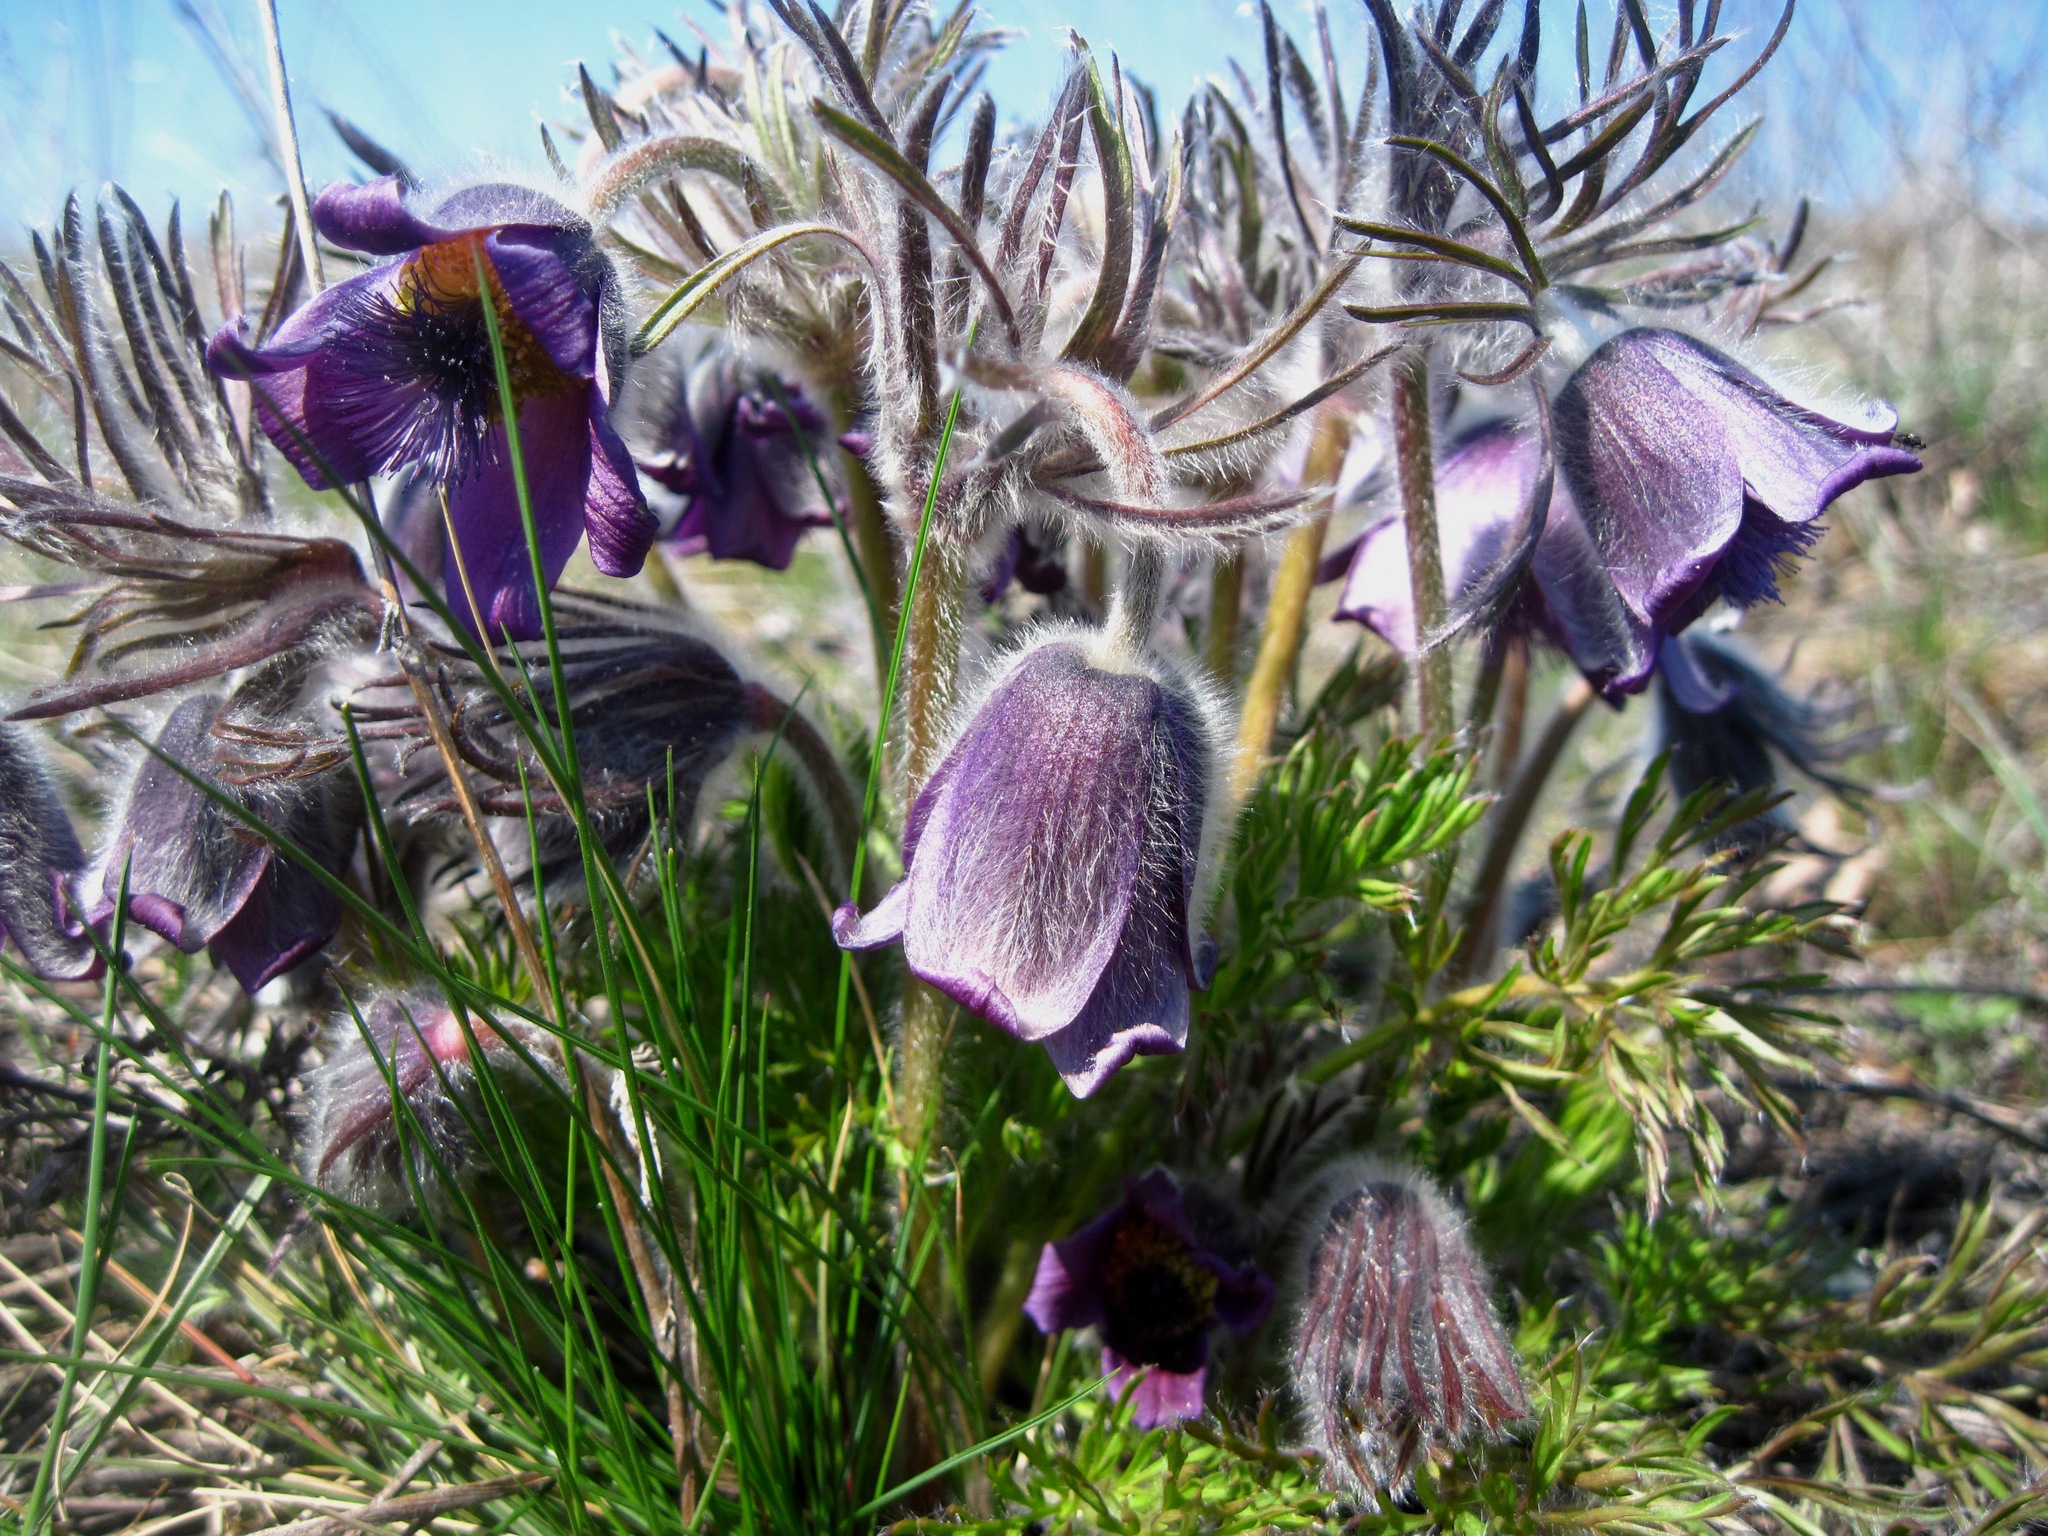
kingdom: Plantae
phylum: Tracheophyta
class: Magnoliopsida
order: Ranunculales
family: Ranunculaceae
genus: Pulsatilla
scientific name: Pulsatilla pratensis
